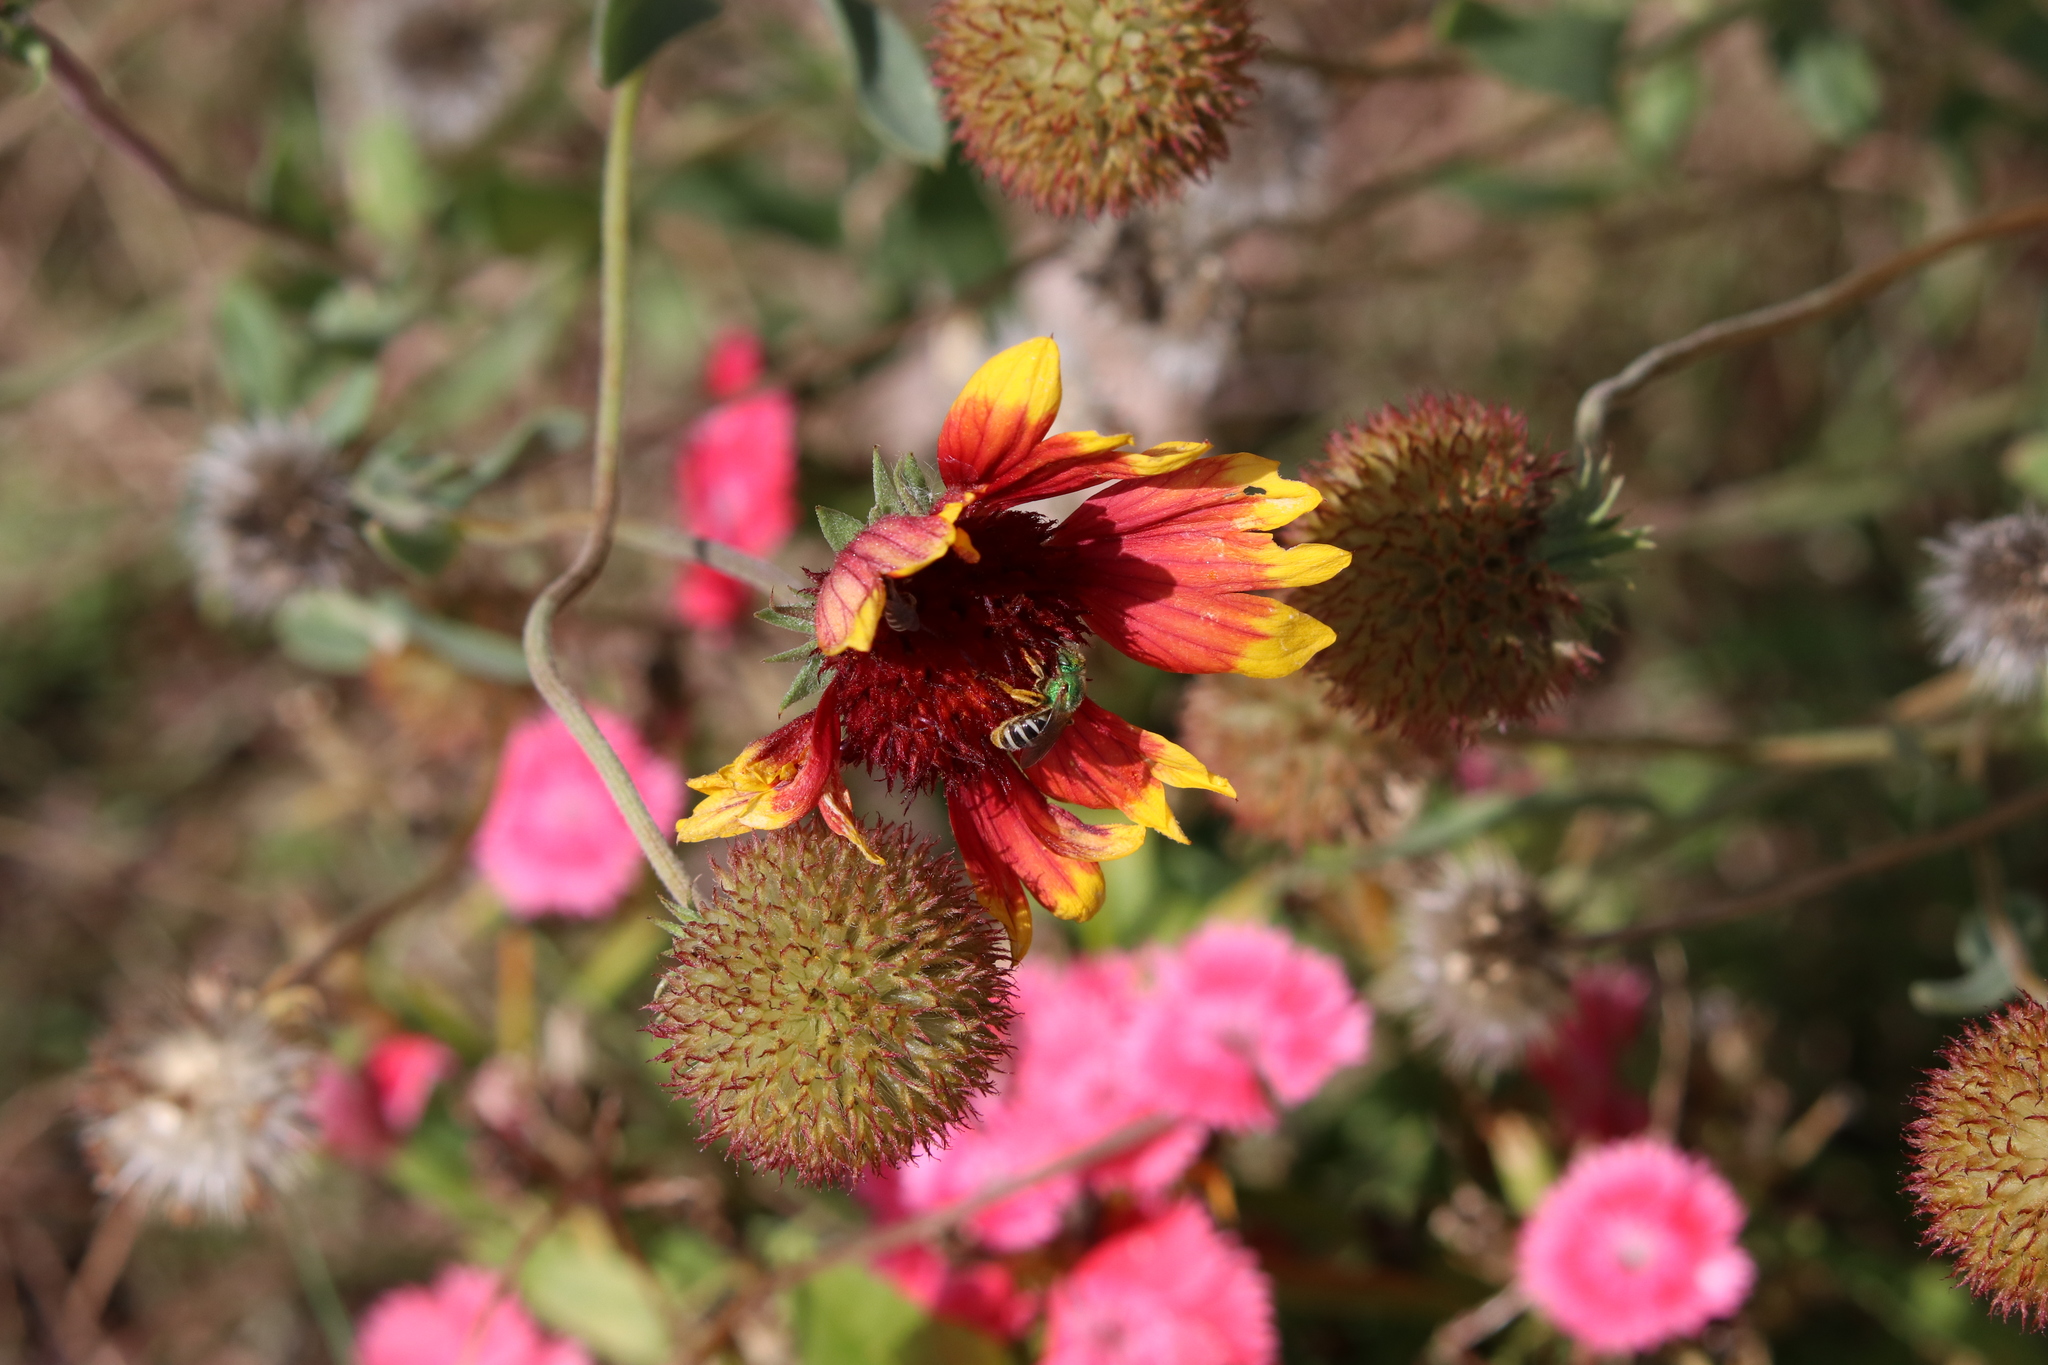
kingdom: Animalia
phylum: Arthropoda
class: Insecta
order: Hymenoptera
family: Halictidae
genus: Agapostemon
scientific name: Agapostemon virescens
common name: Bicolored striped sweat bee
